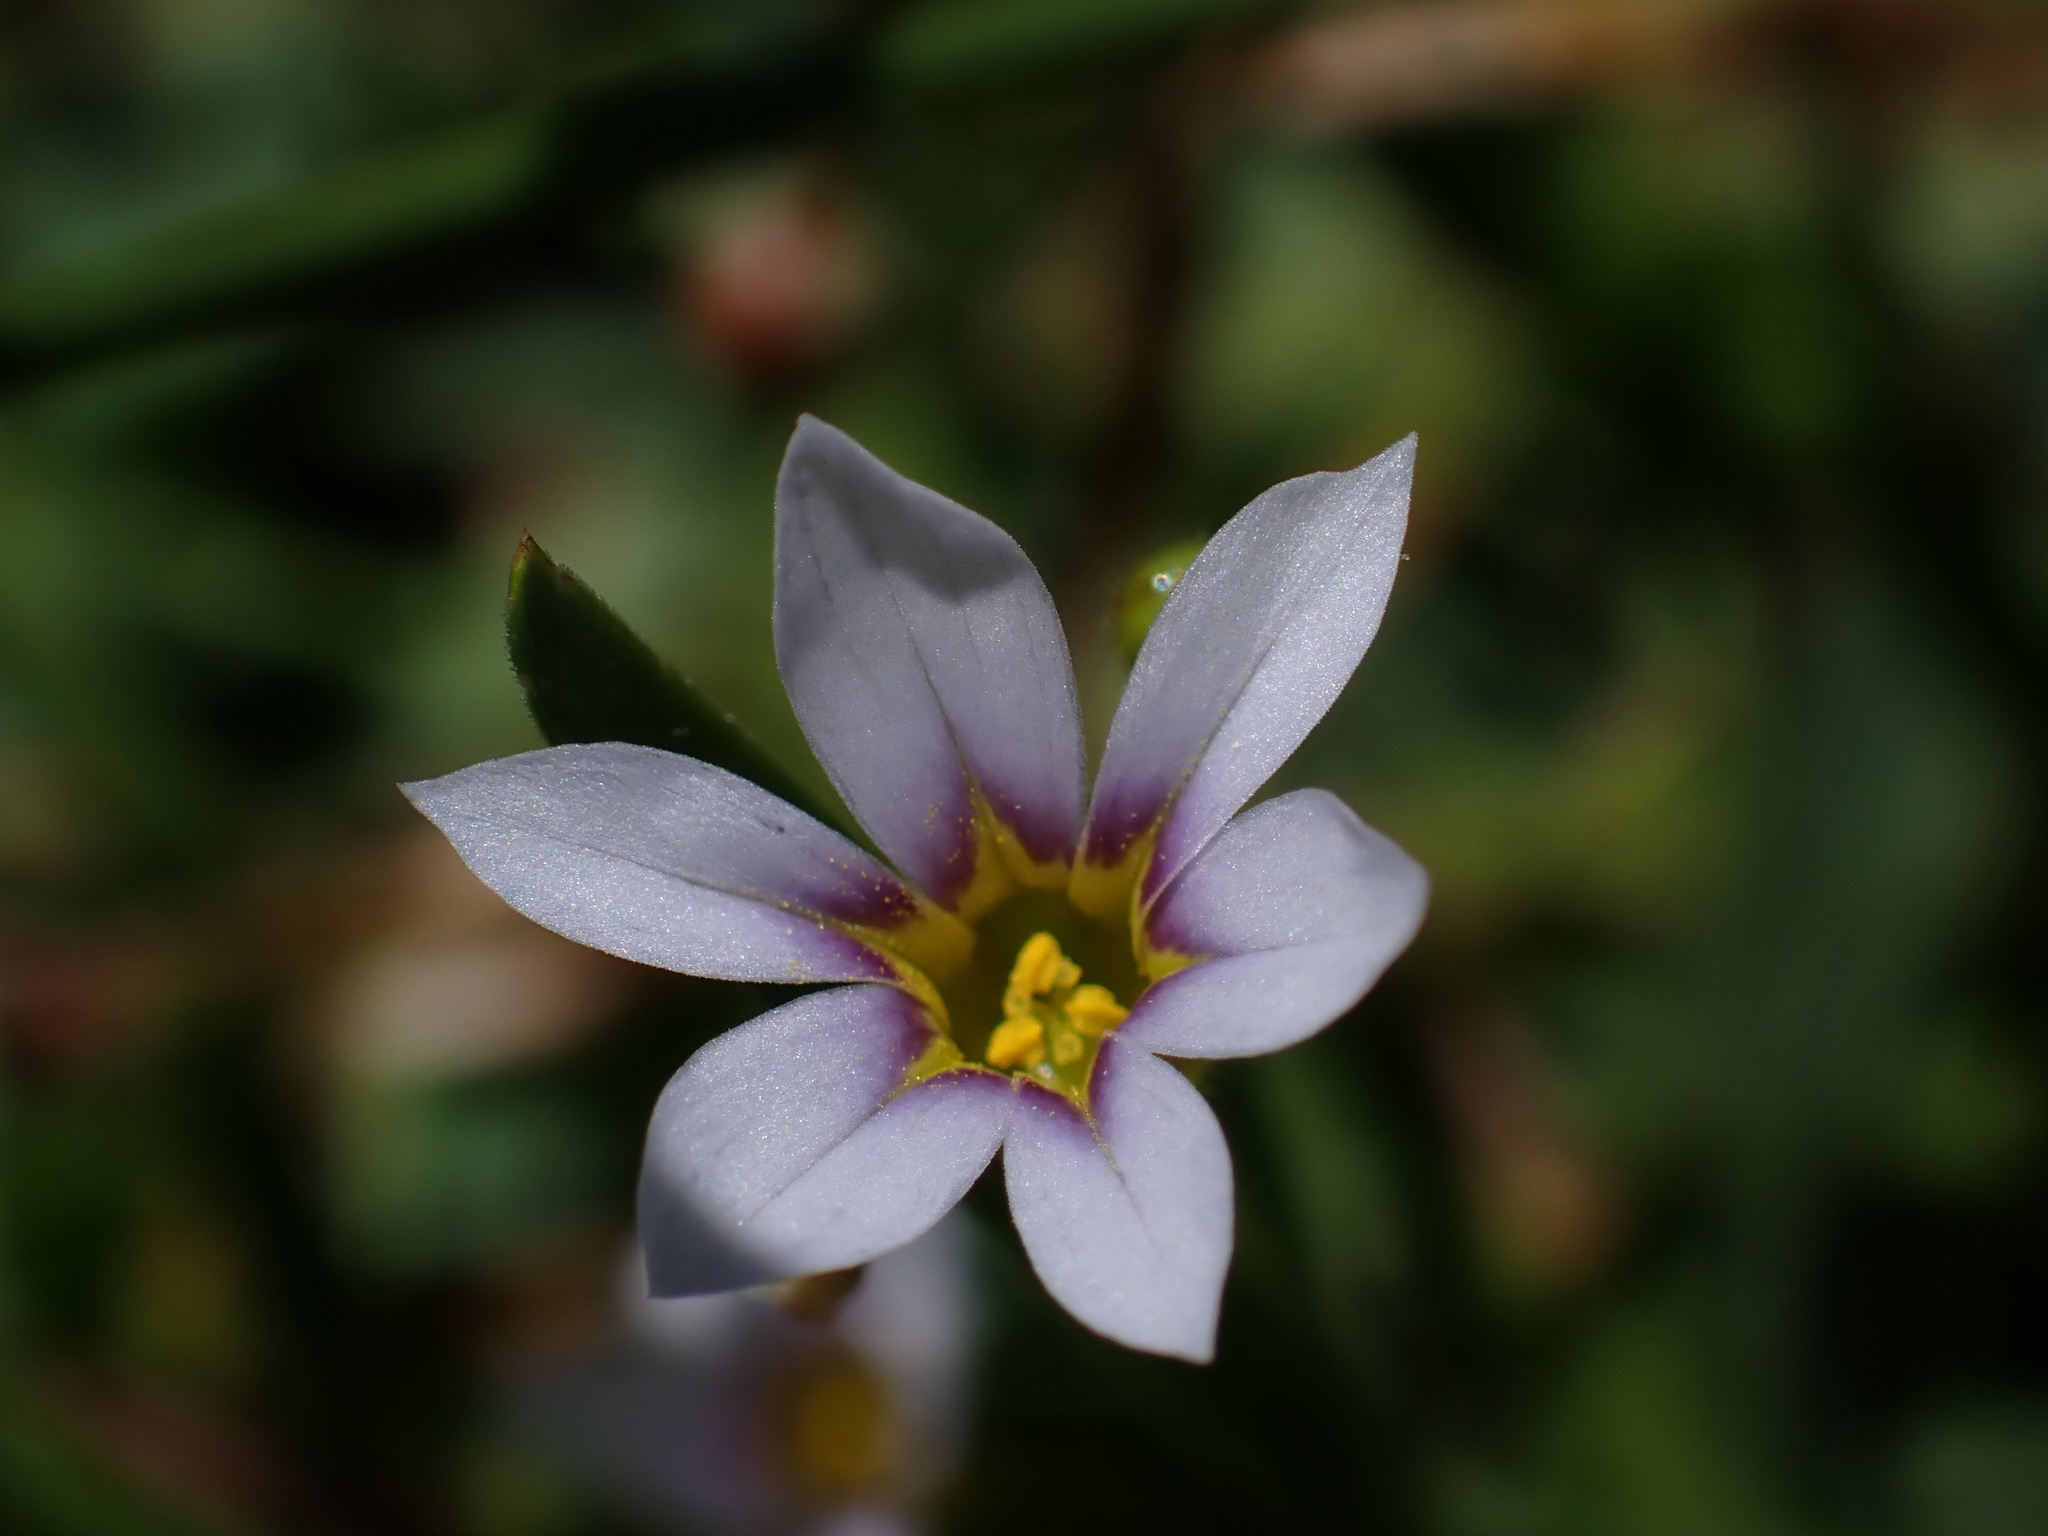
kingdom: Plantae
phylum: Tracheophyta
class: Liliopsida
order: Asparagales
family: Iridaceae
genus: Sisyrinchium
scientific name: Sisyrinchium micranthum
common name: Bermuda pigroot
